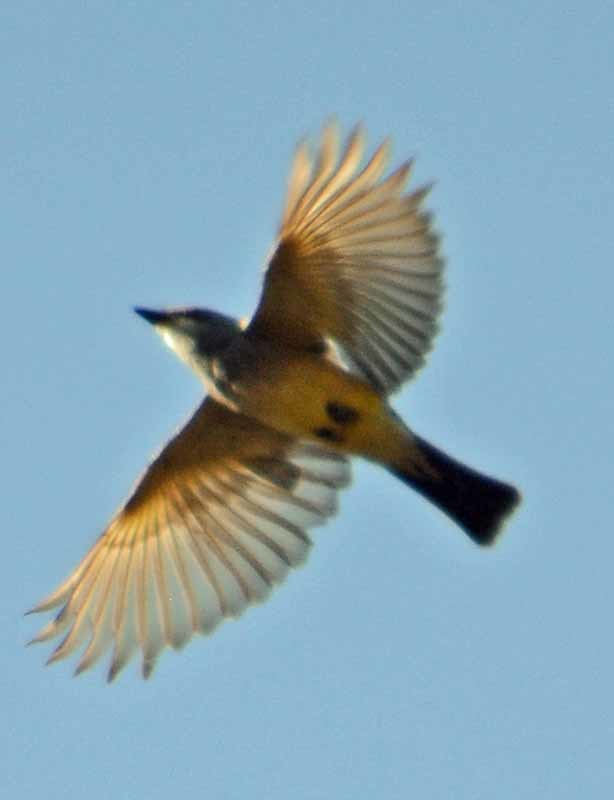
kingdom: Animalia
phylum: Chordata
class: Aves
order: Passeriformes
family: Tyrannidae
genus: Tyrannus
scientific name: Tyrannus vociferans
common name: Cassin's kingbird
